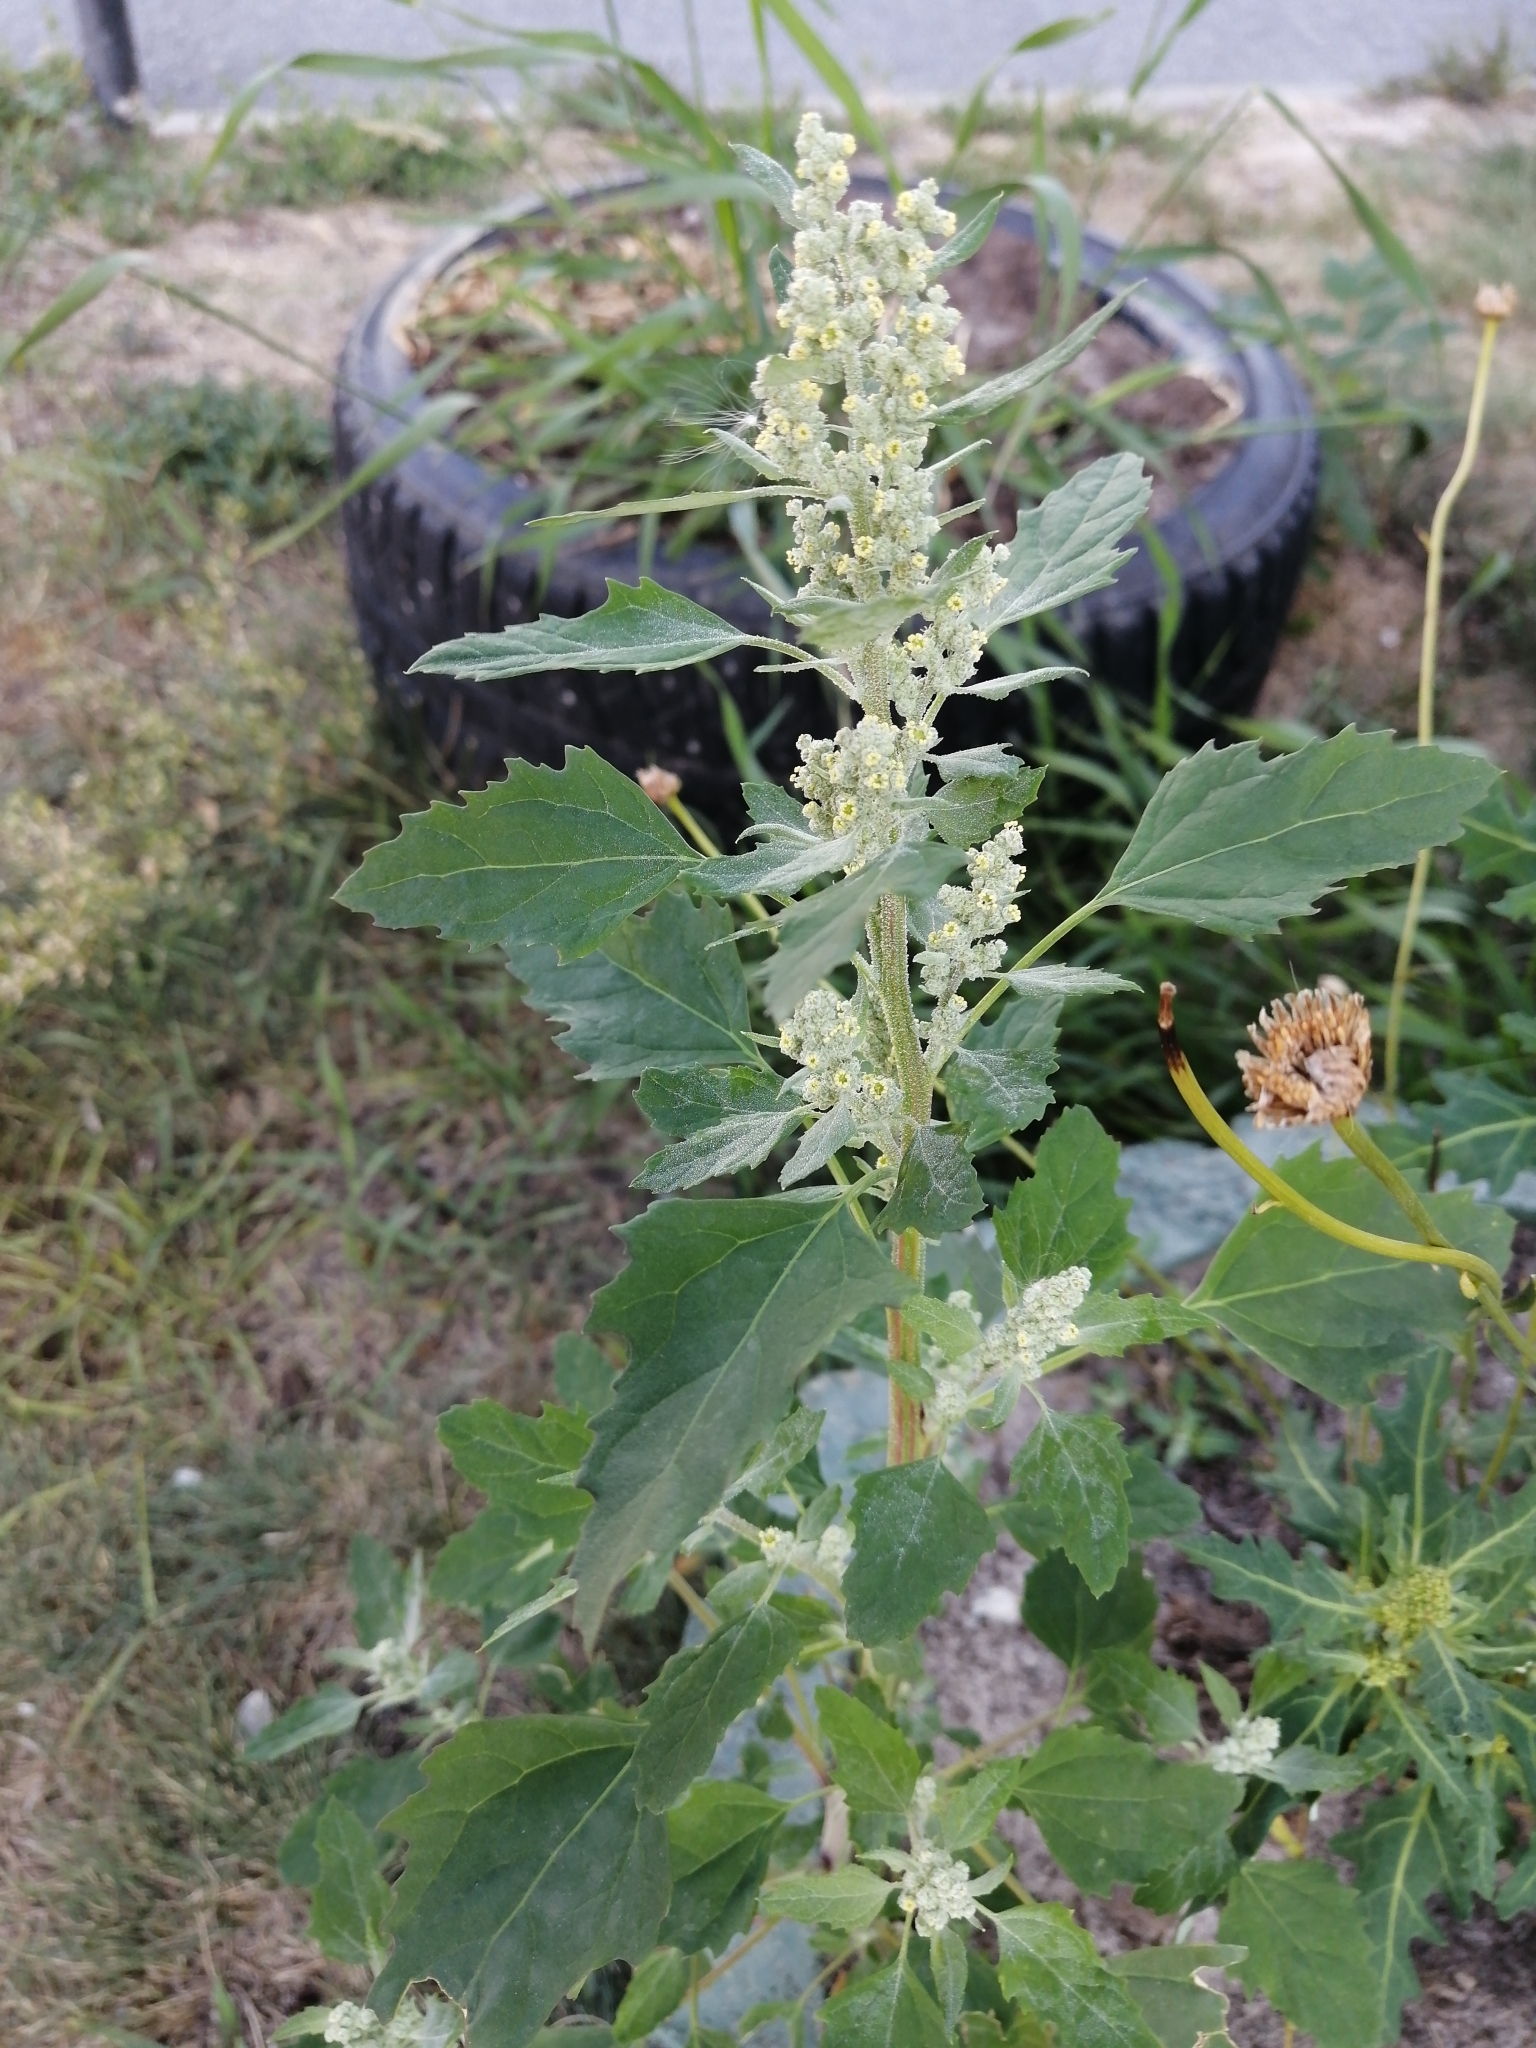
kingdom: Plantae
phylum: Tracheophyta
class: Magnoliopsida
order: Caryophyllales
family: Amaranthaceae
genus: Chenopodium
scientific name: Chenopodium album
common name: Fat-hen
